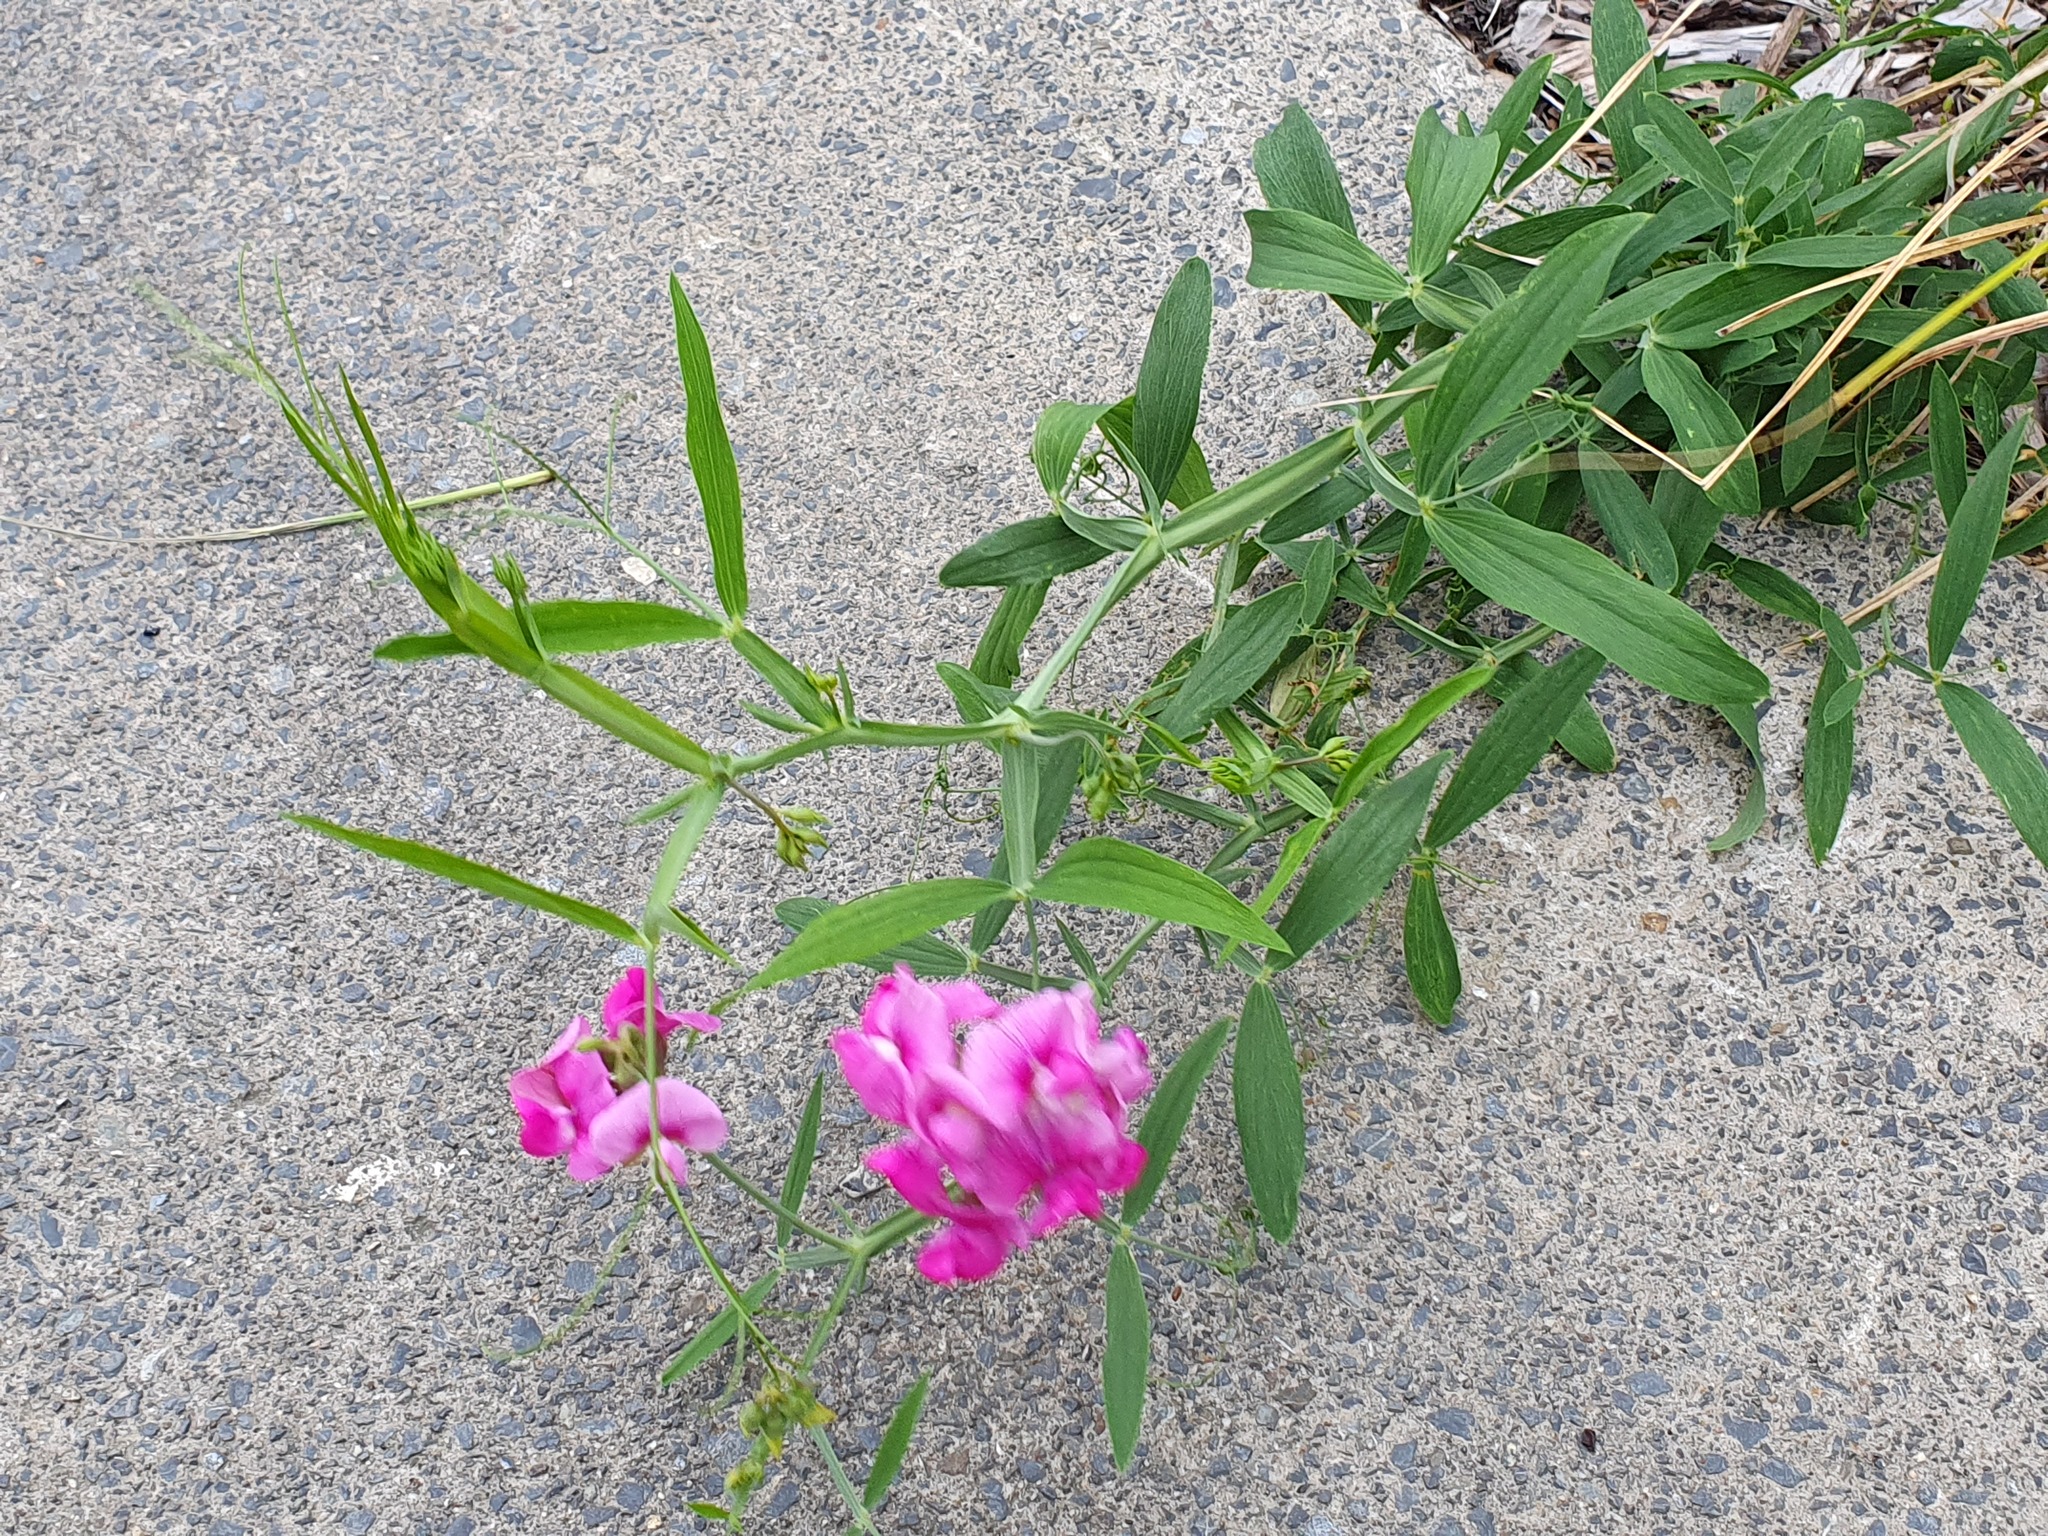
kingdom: Plantae
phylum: Tracheophyta
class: Magnoliopsida
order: Fabales
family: Fabaceae
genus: Lathyrus
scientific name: Lathyrus latifolius
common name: Perennial pea
